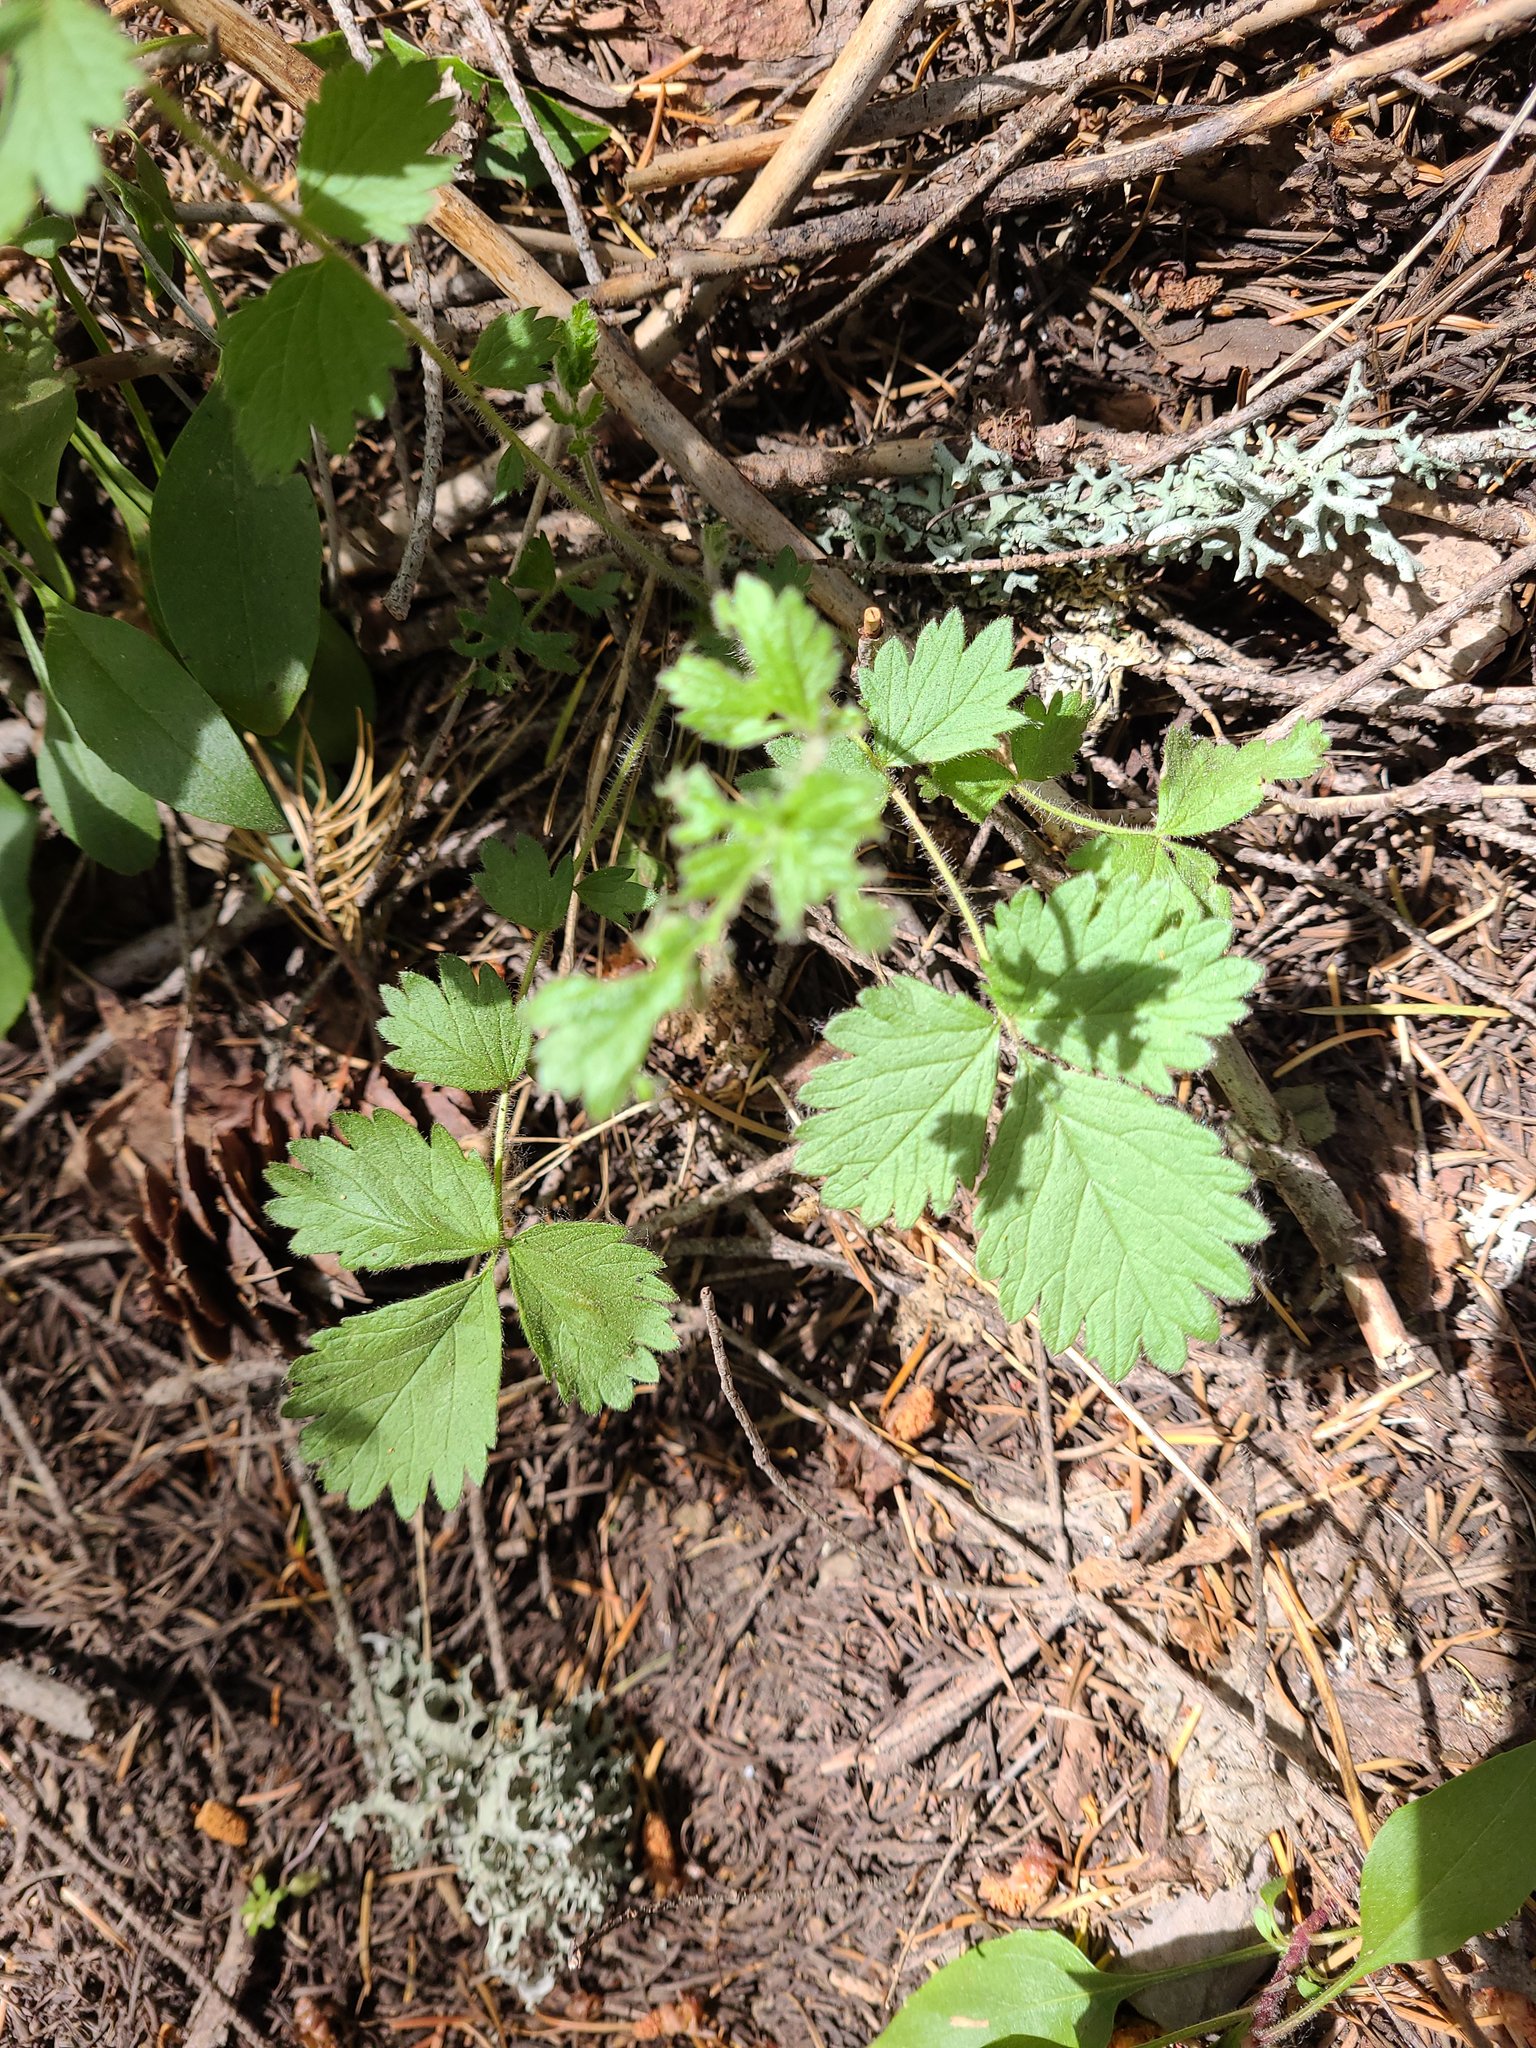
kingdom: Plantae
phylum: Tracheophyta
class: Magnoliopsida
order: Rosales
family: Rosaceae
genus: Drymocallis
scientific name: Drymocallis glandulosa
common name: Sticky cinquefoil
